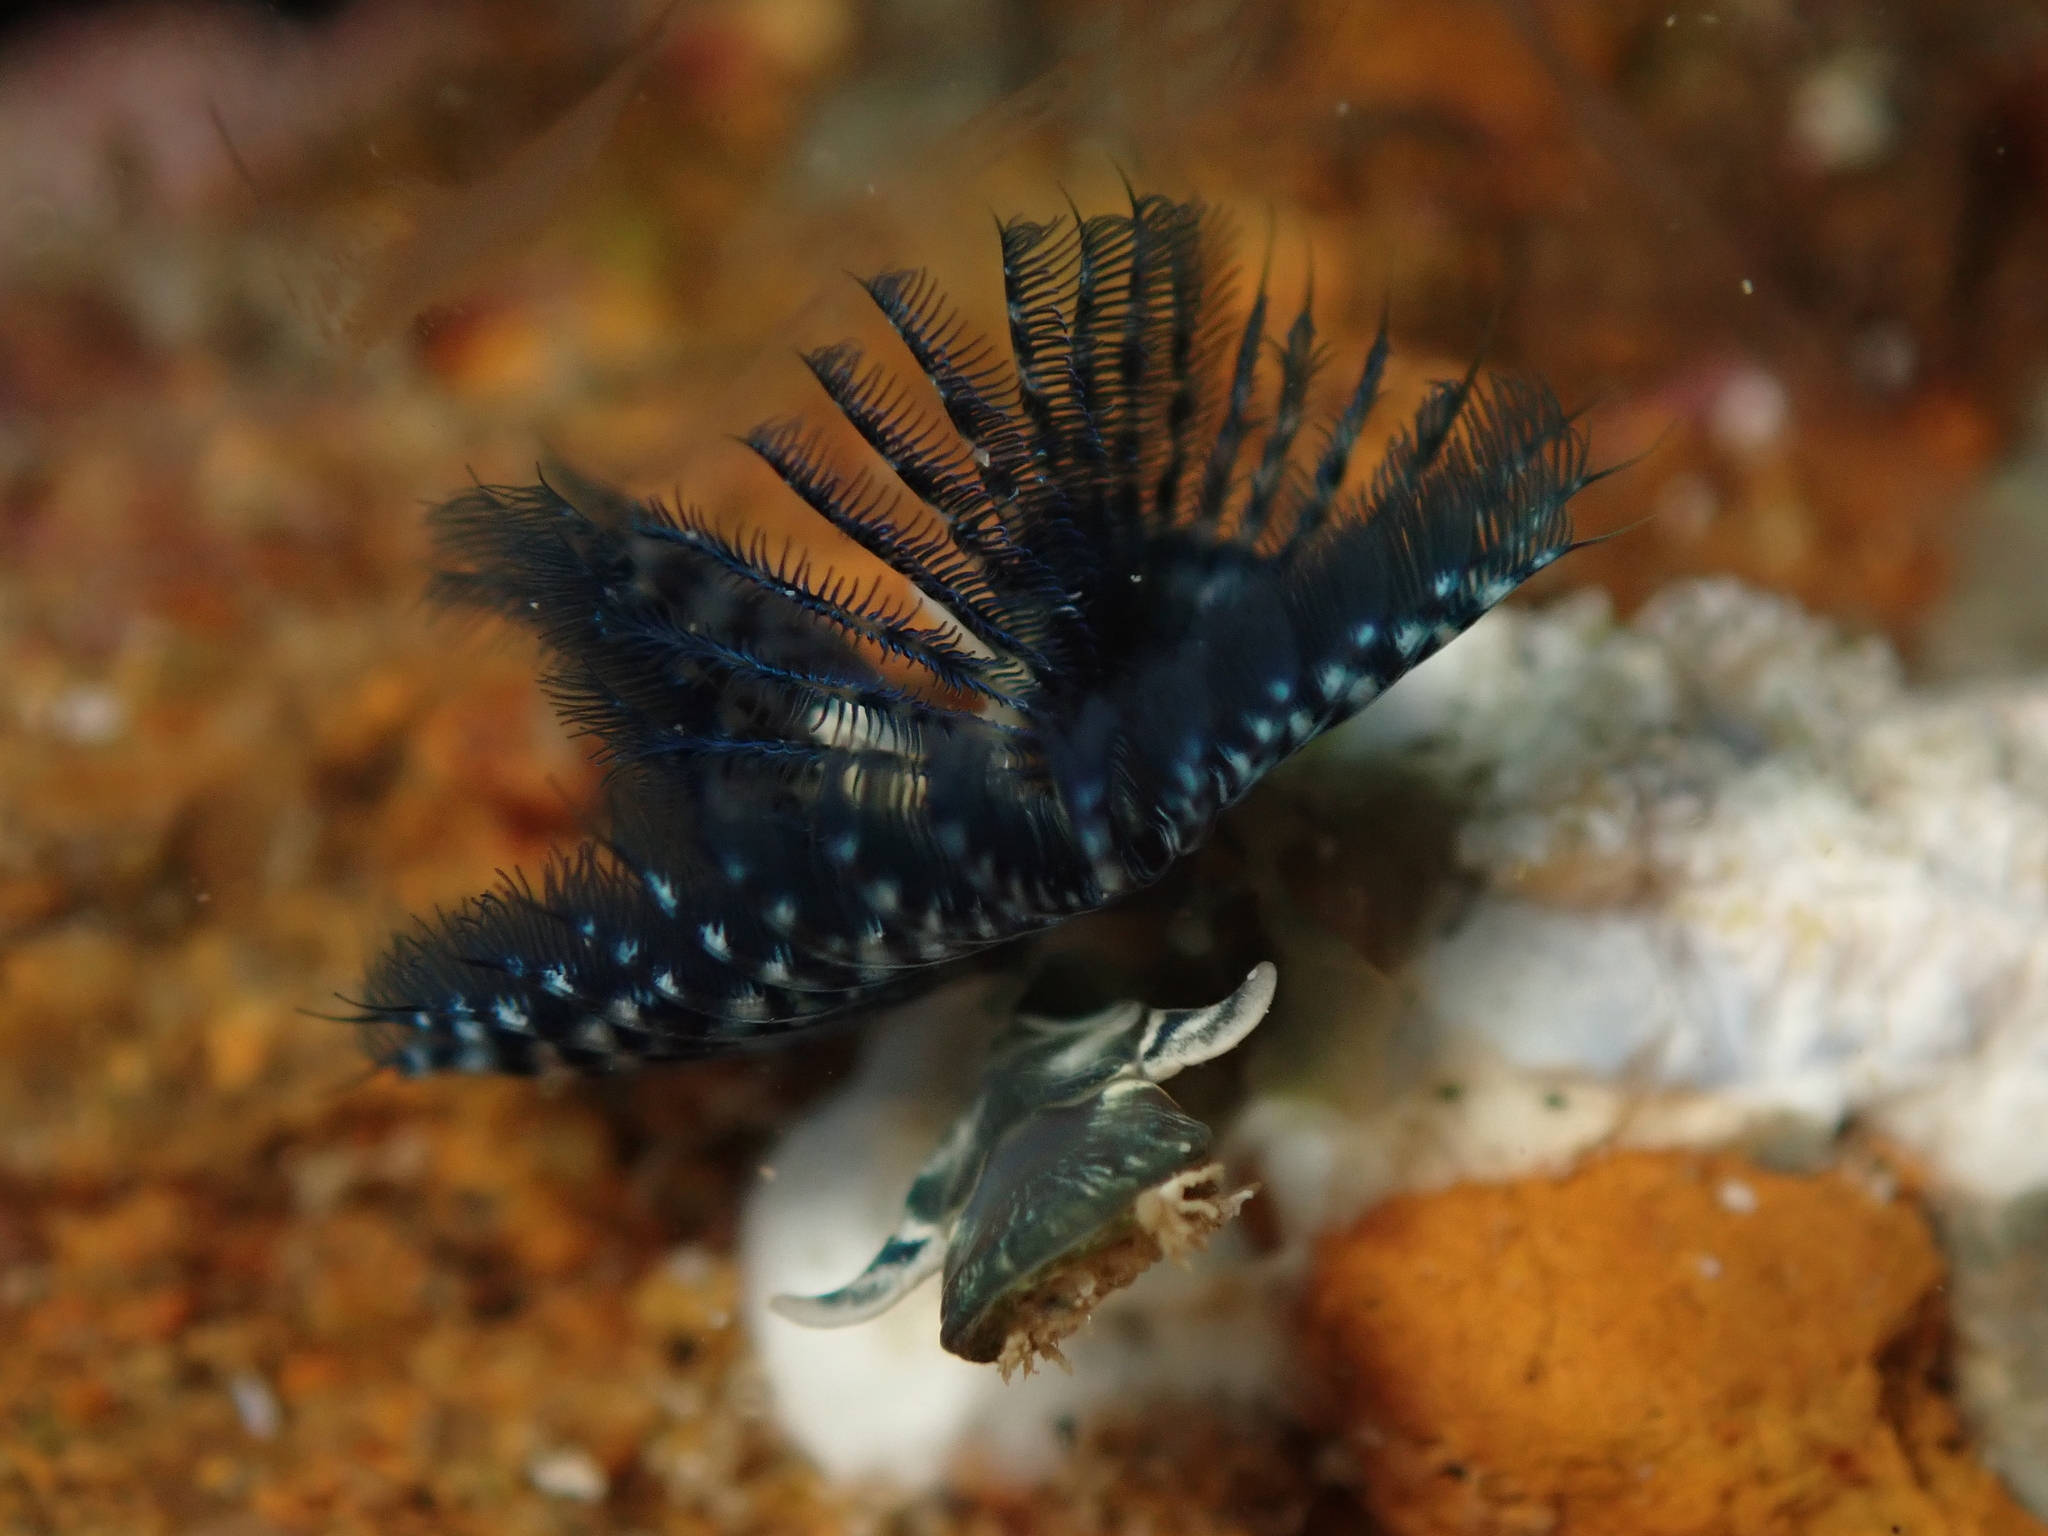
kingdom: Animalia
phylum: Annelida
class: Polychaeta
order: Sabellida
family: Serpulidae
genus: Spirobranchus
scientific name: Spirobranchus cariniferus
